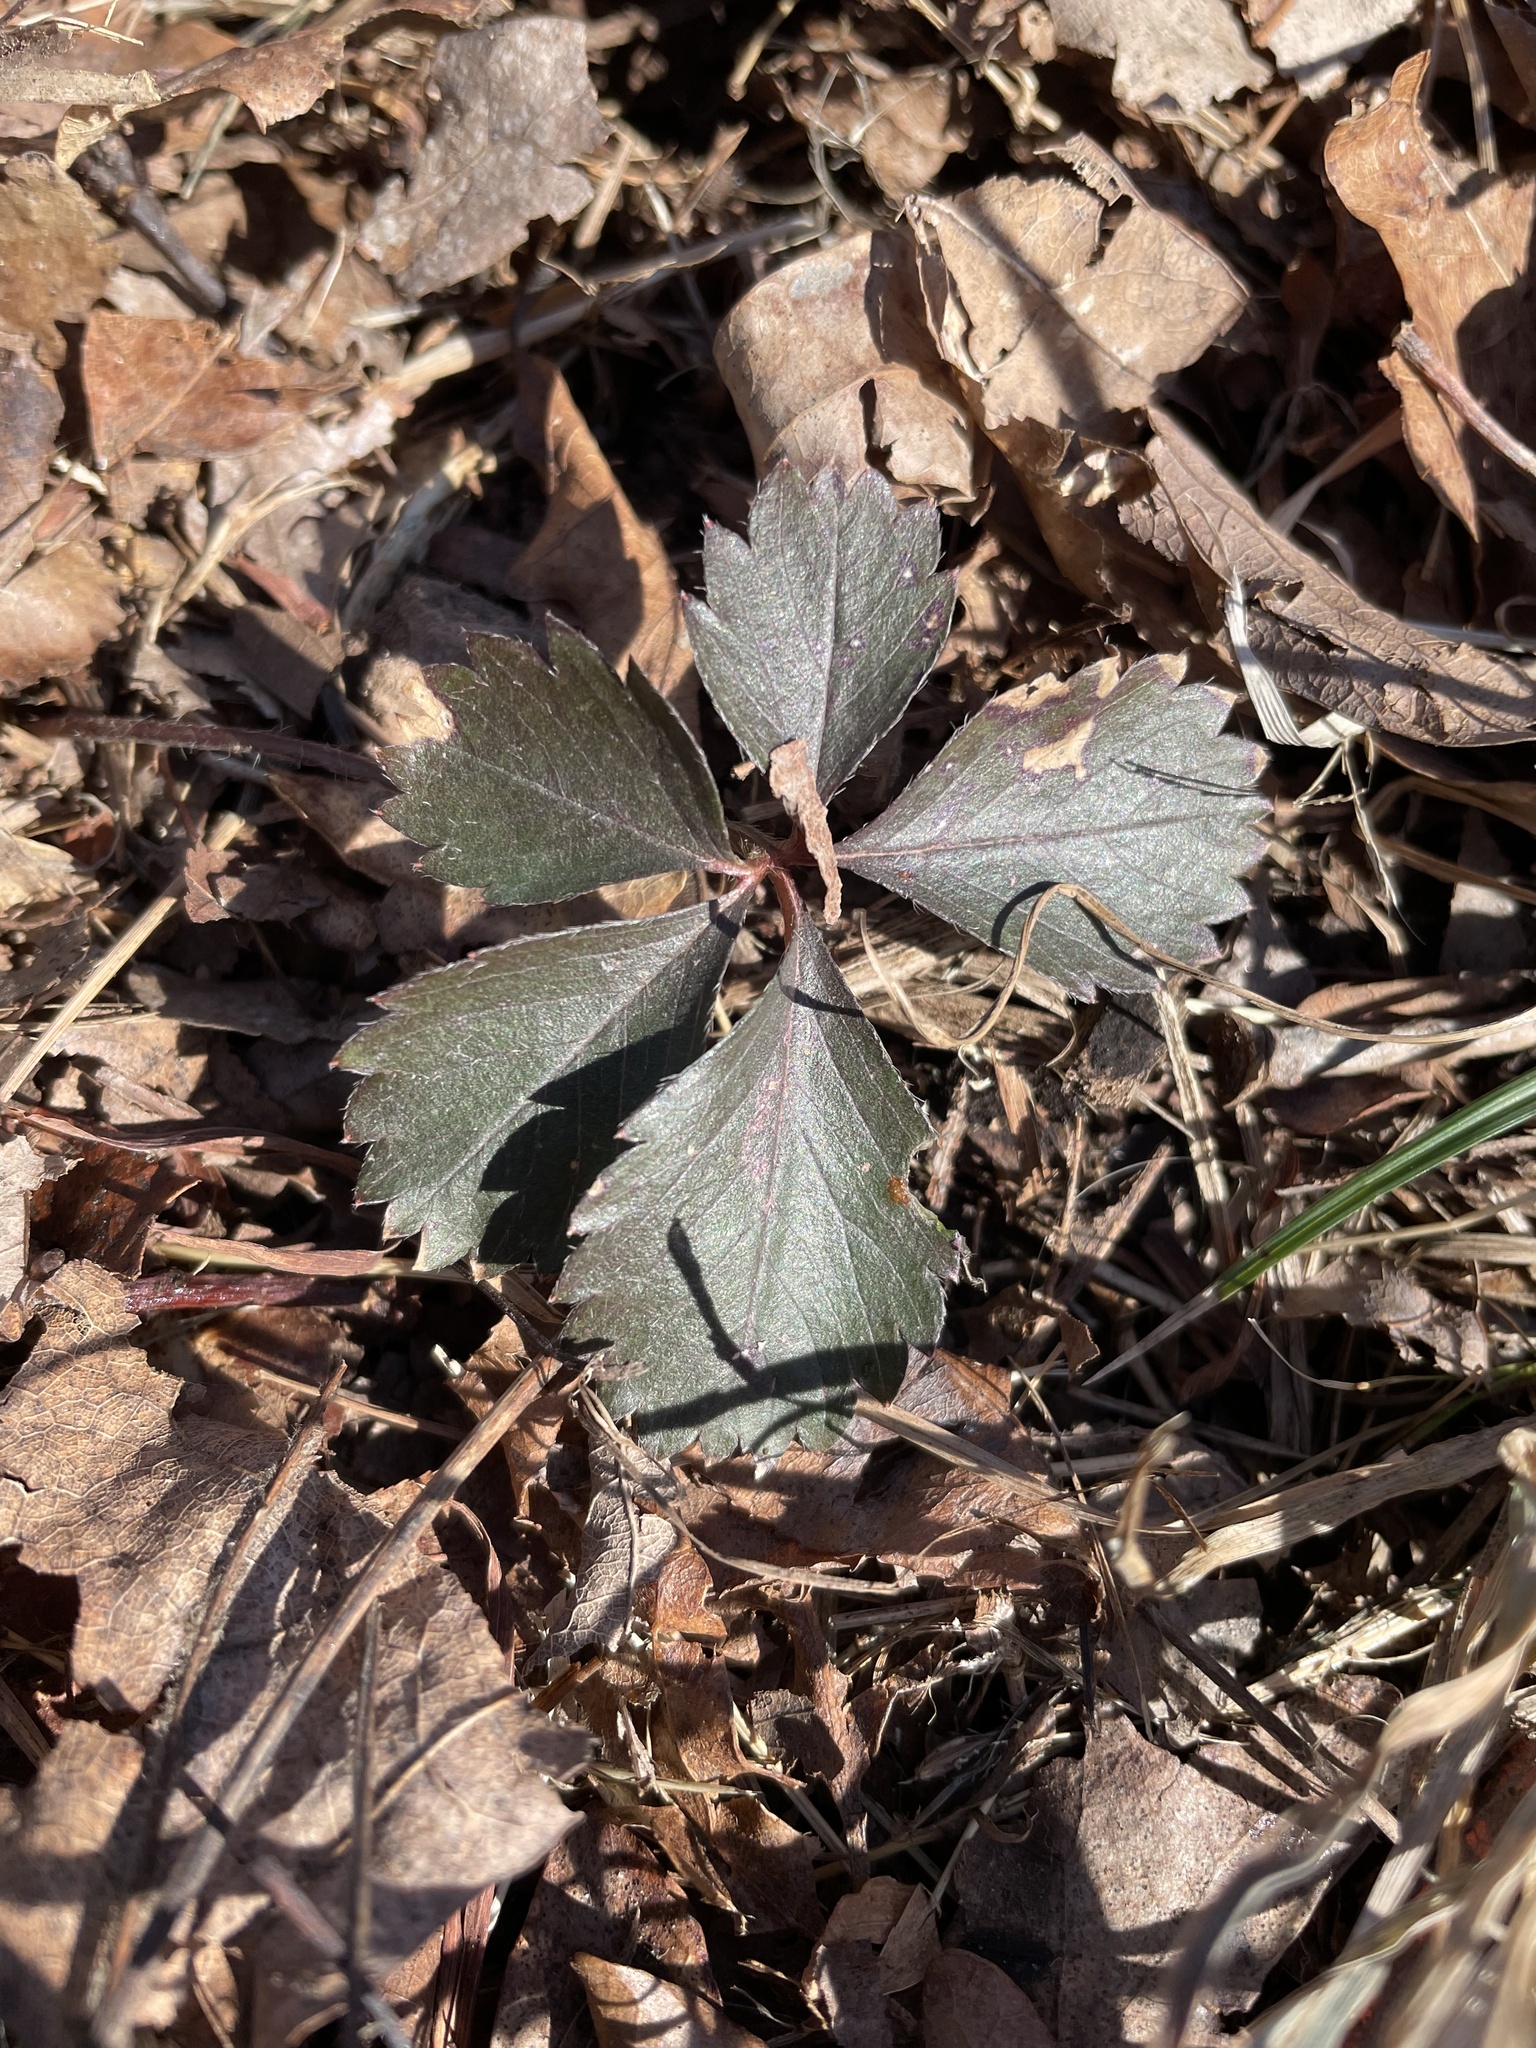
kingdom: Plantae
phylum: Tracheophyta
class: Magnoliopsida
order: Rosales
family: Rosaceae
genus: Potentilla
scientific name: Potentilla canadensis
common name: Canada cinquefoil
